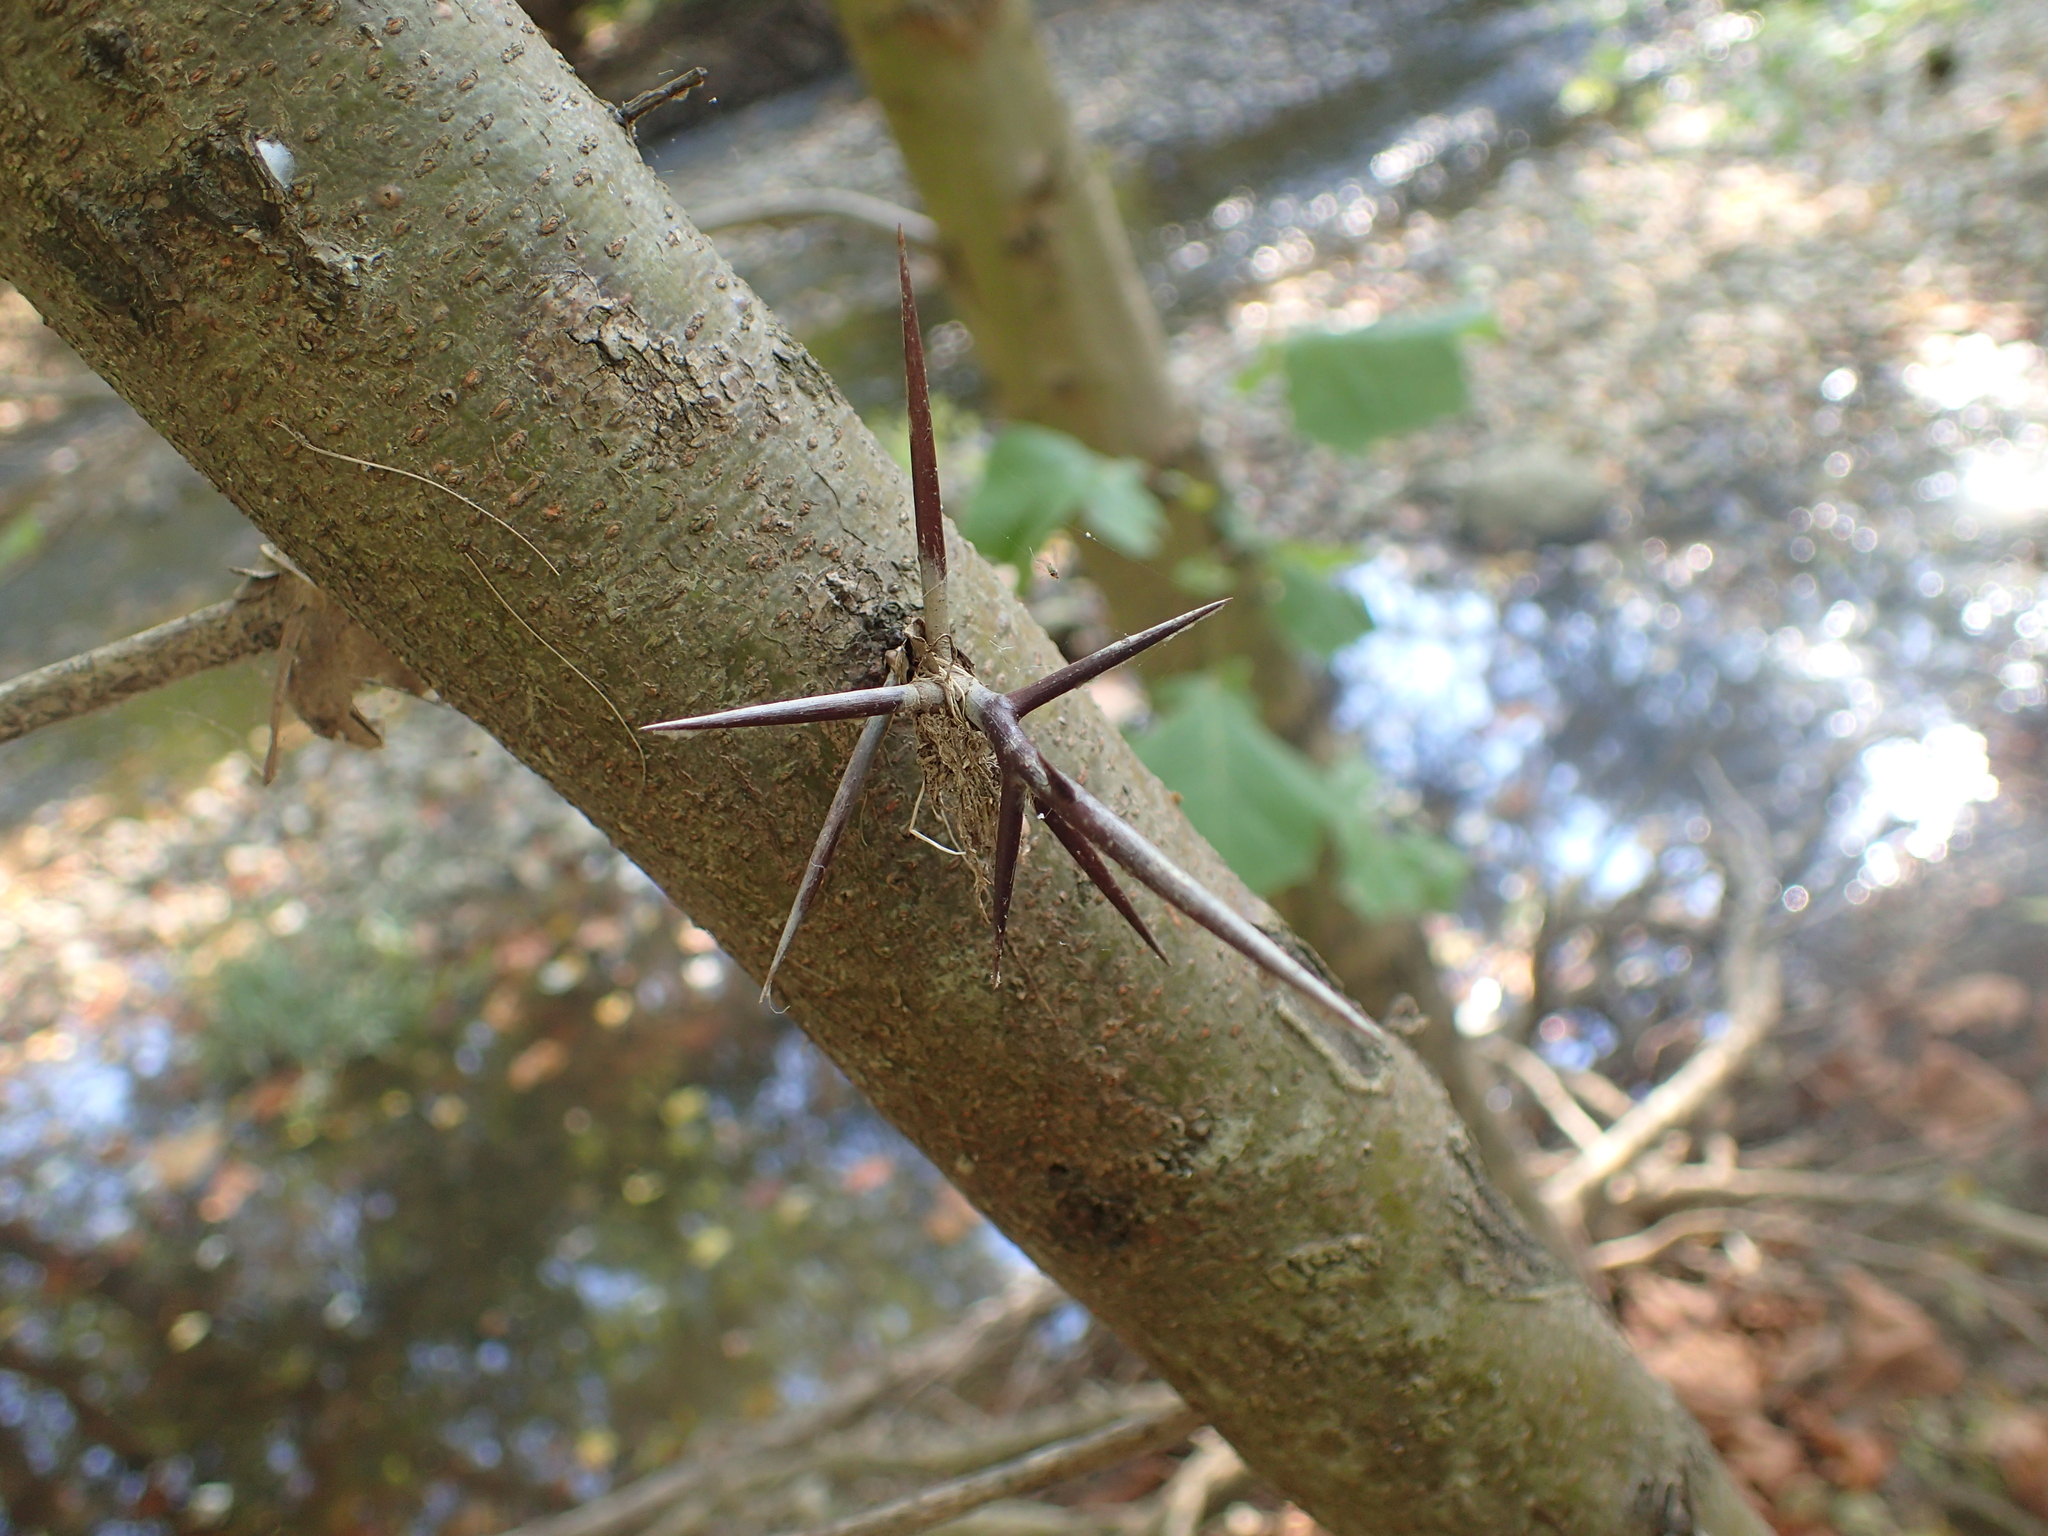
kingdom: Plantae
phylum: Tracheophyta
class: Magnoliopsida
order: Fabales
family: Fabaceae
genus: Gleditsia
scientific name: Gleditsia triacanthos
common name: Common honeylocust
